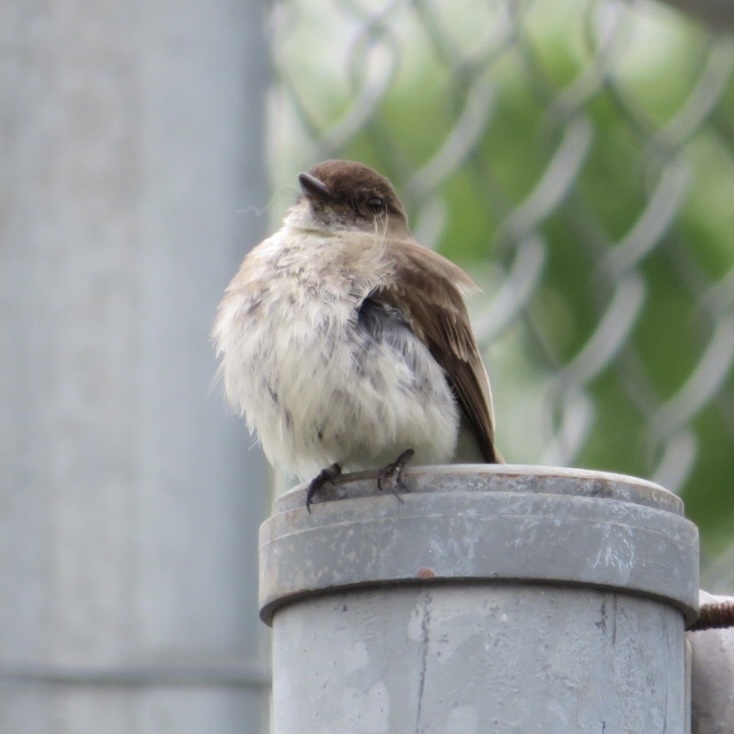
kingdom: Animalia
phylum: Chordata
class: Aves
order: Passeriformes
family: Tyrannidae
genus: Sayornis
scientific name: Sayornis phoebe
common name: Eastern phoebe
